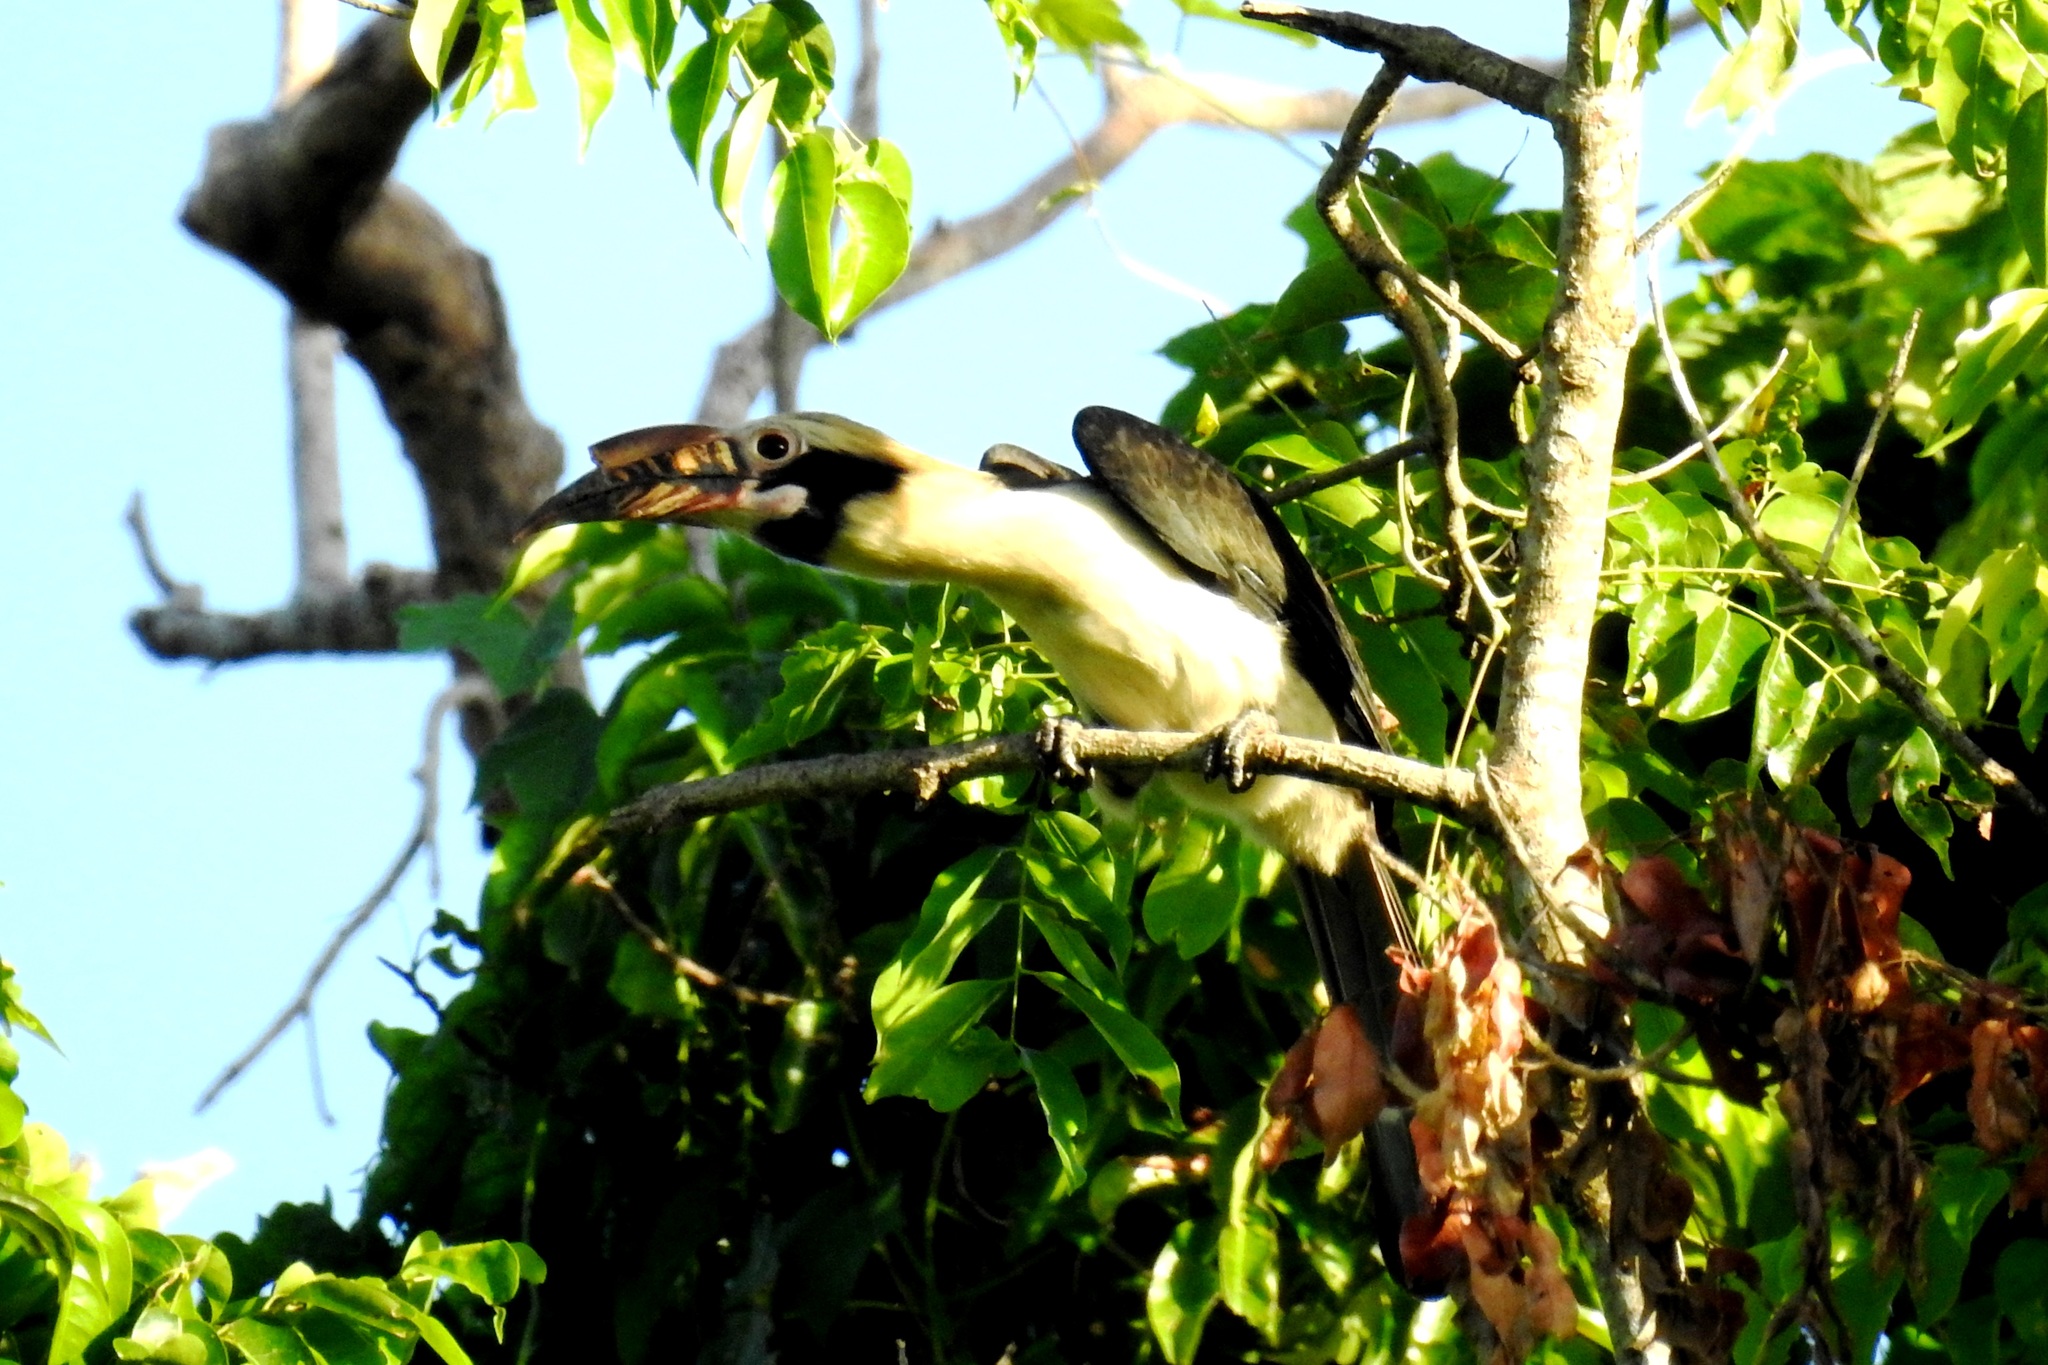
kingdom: Animalia
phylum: Chordata
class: Aves
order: Bucerotiformes
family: Bucerotidae
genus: Penelopides
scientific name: Penelopides manillae
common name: Luzon hornbill
